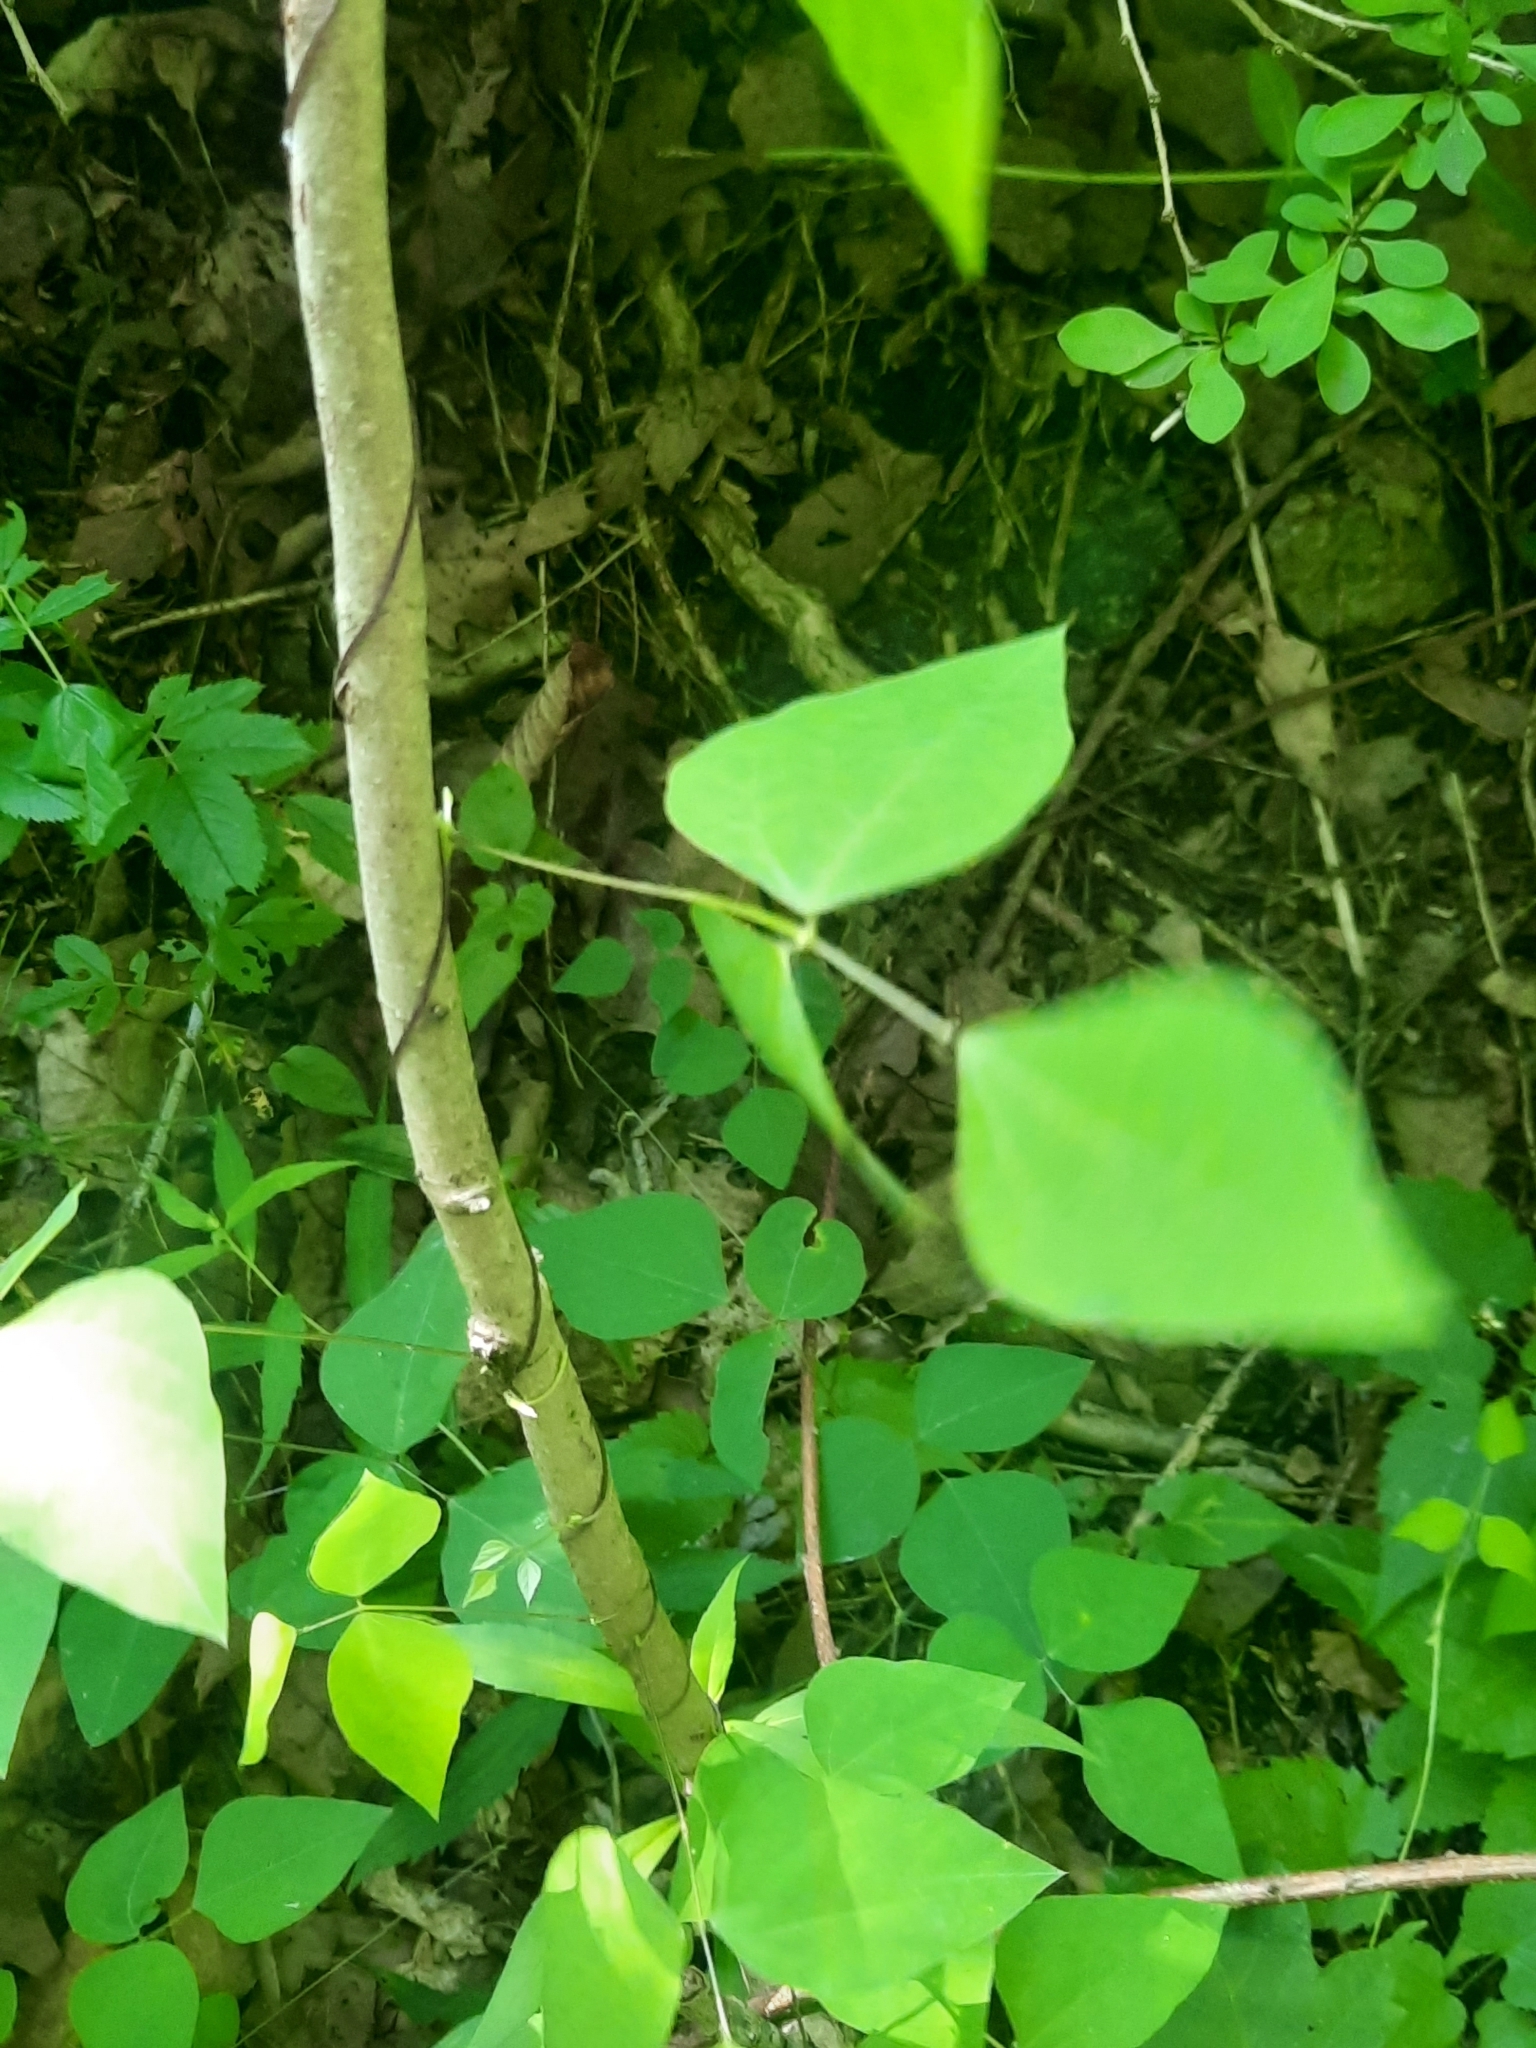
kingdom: Plantae
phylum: Tracheophyta
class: Magnoliopsida
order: Fabales
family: Fabaceae
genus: Amphicarpaea
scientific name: Amphicarpaea bracteata
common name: American hog peanut
